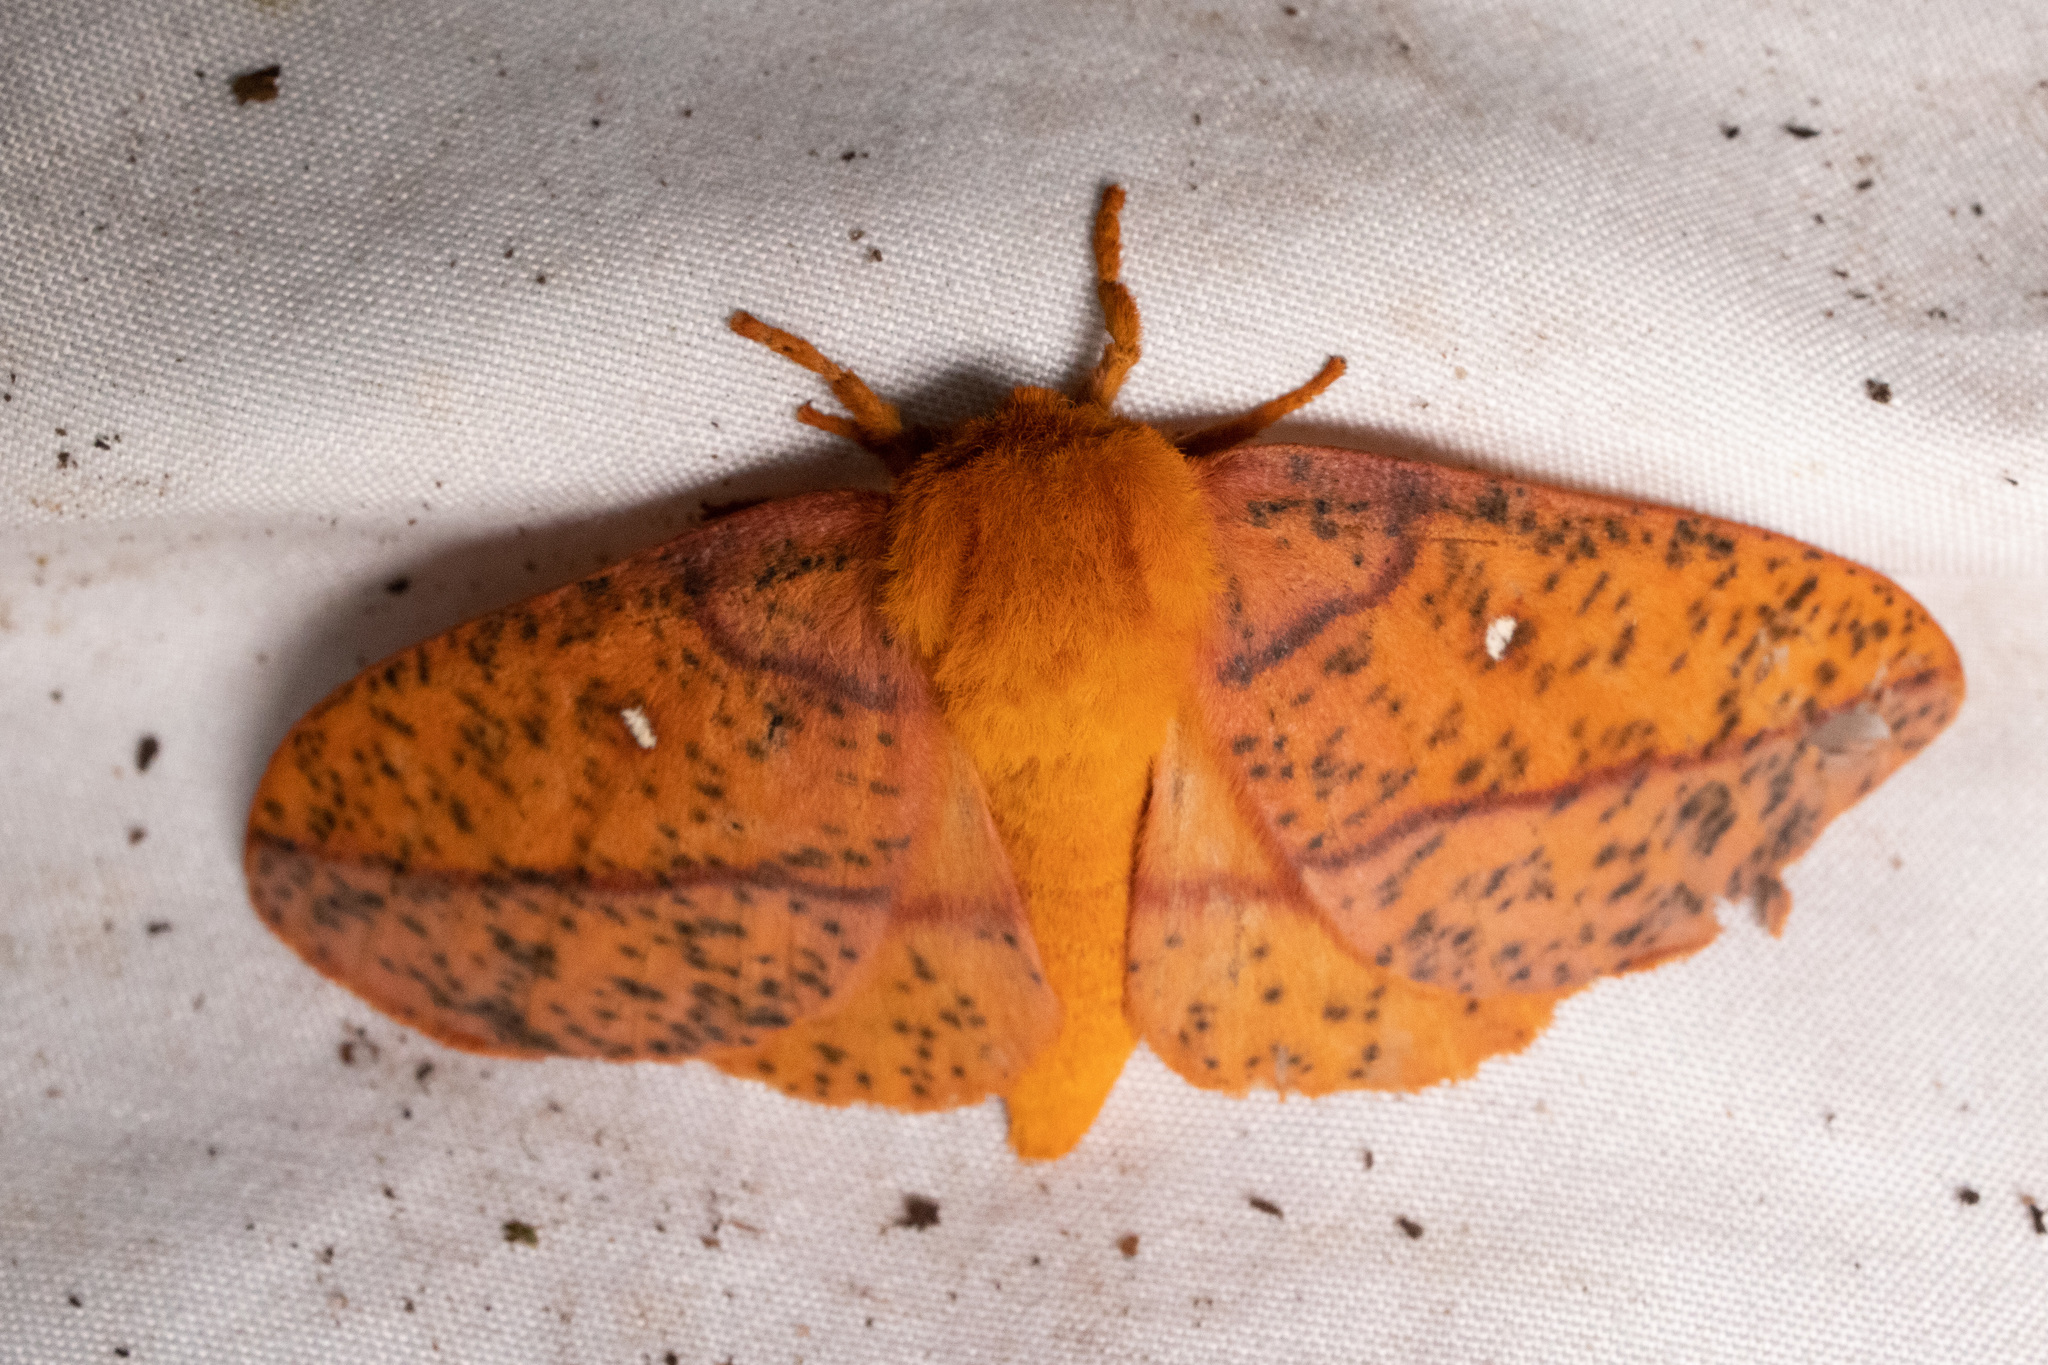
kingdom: Animalia
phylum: Arthropoda
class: Insecta
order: Lepidoptera
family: Saturniidae
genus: Anisota
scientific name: Anisota stigma
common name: Spiny oakworm moth
